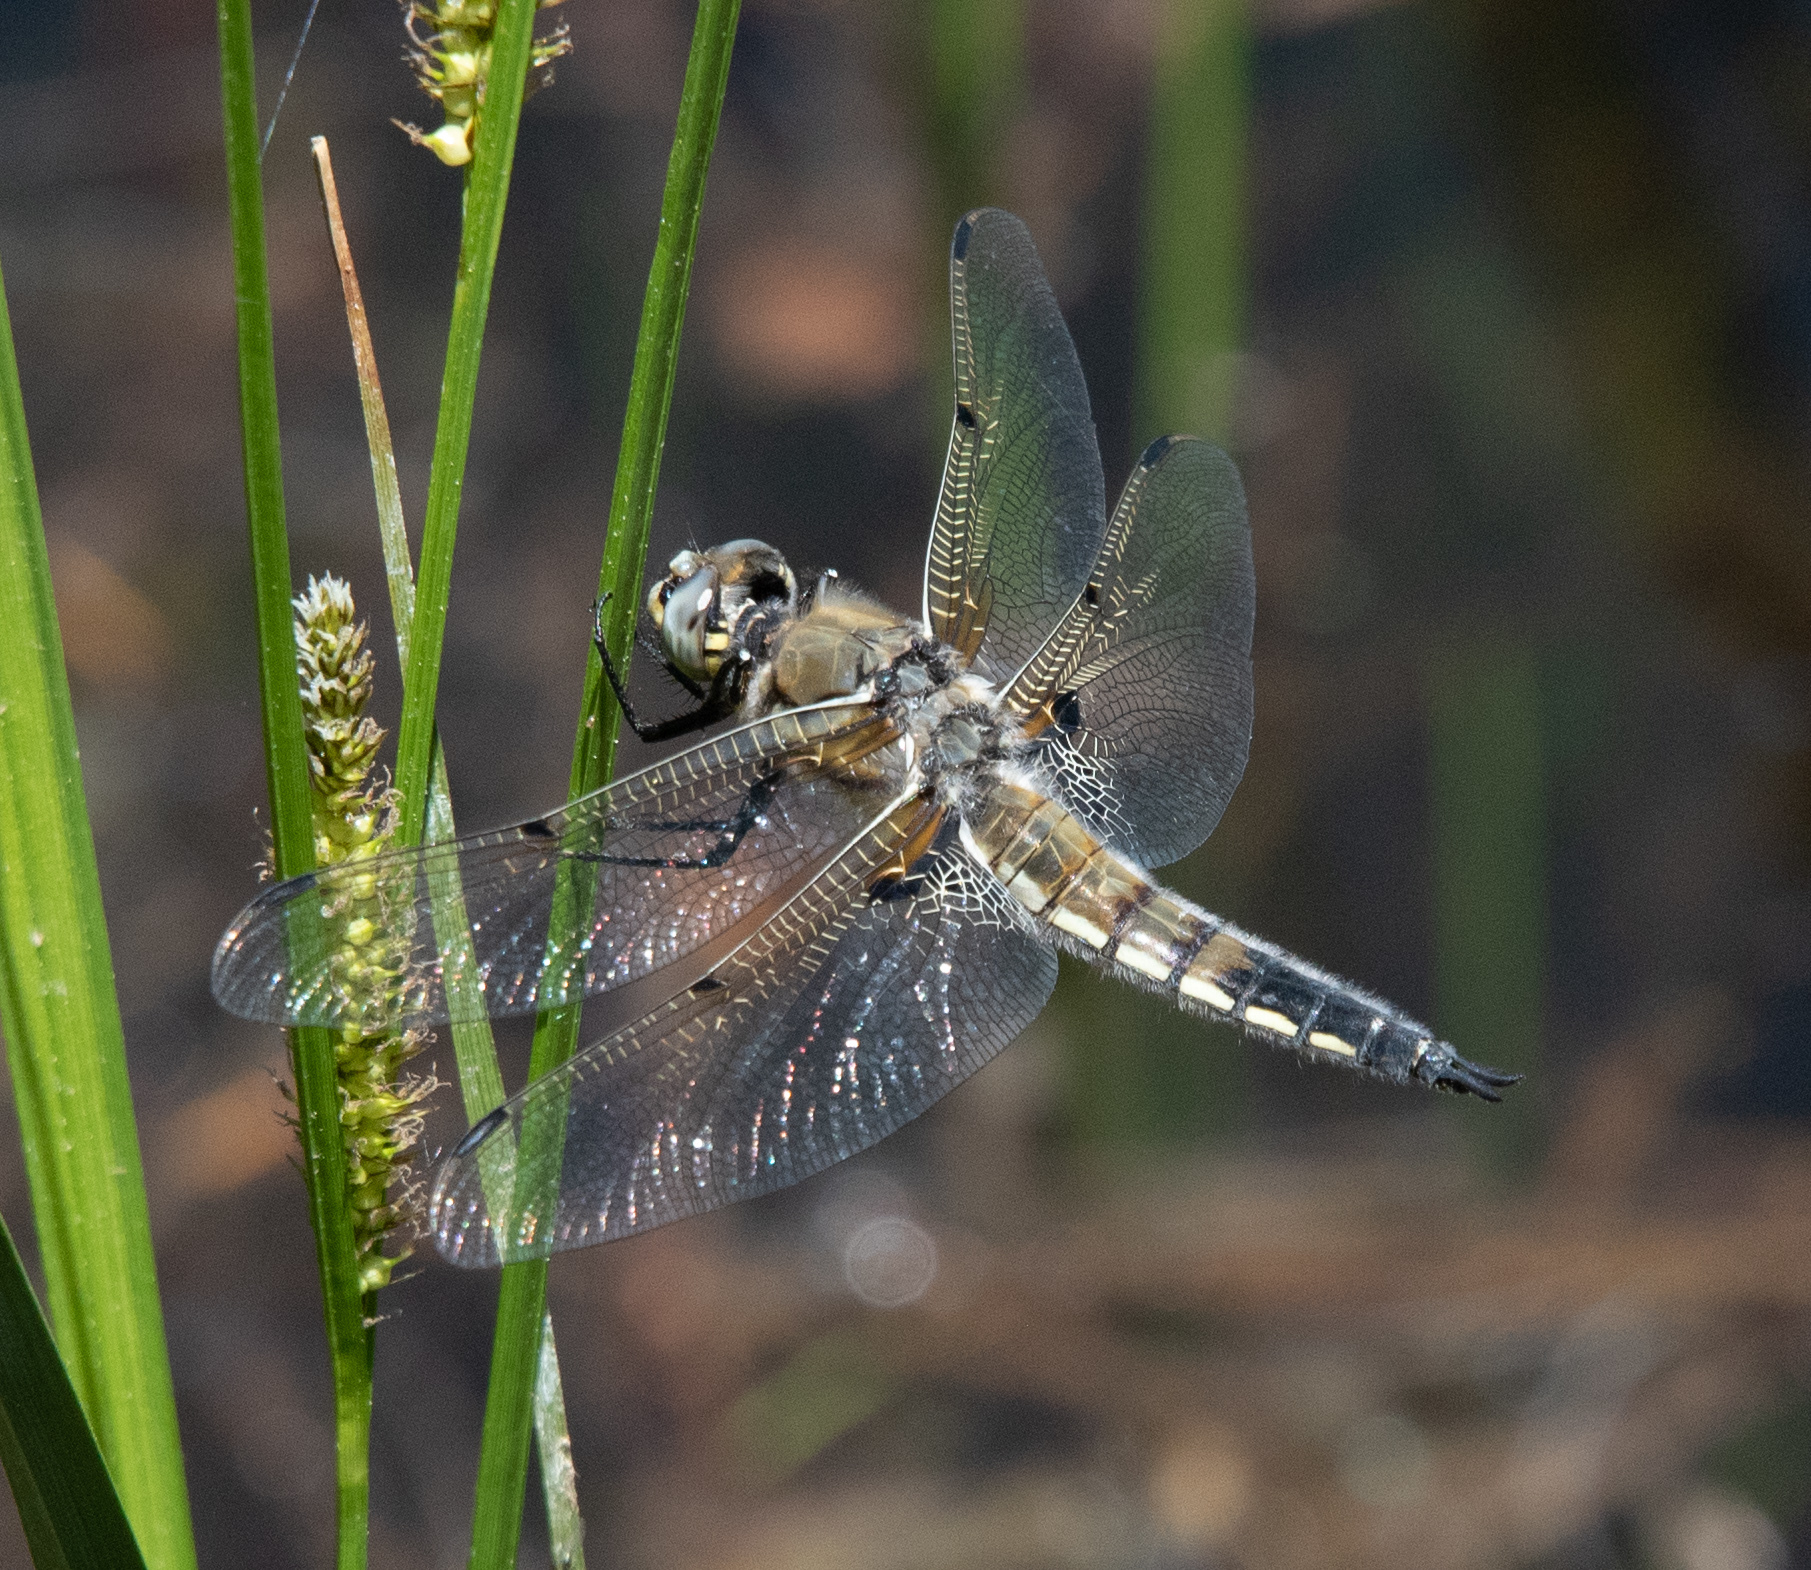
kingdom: Animalia
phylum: Arthropoda
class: Insecta
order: Odonata
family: Libellulidae
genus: Libellula
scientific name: Libellula quadrimaculata
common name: Four-spotted chaser
